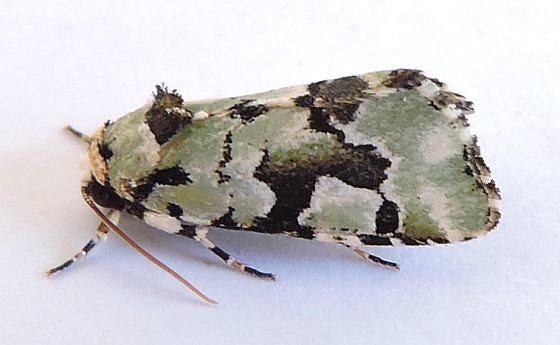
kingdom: Animalia
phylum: Arthropoda
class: Insecta
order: Lepidoptera
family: Noctuidae
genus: Emarginea
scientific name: Emarginea percara
